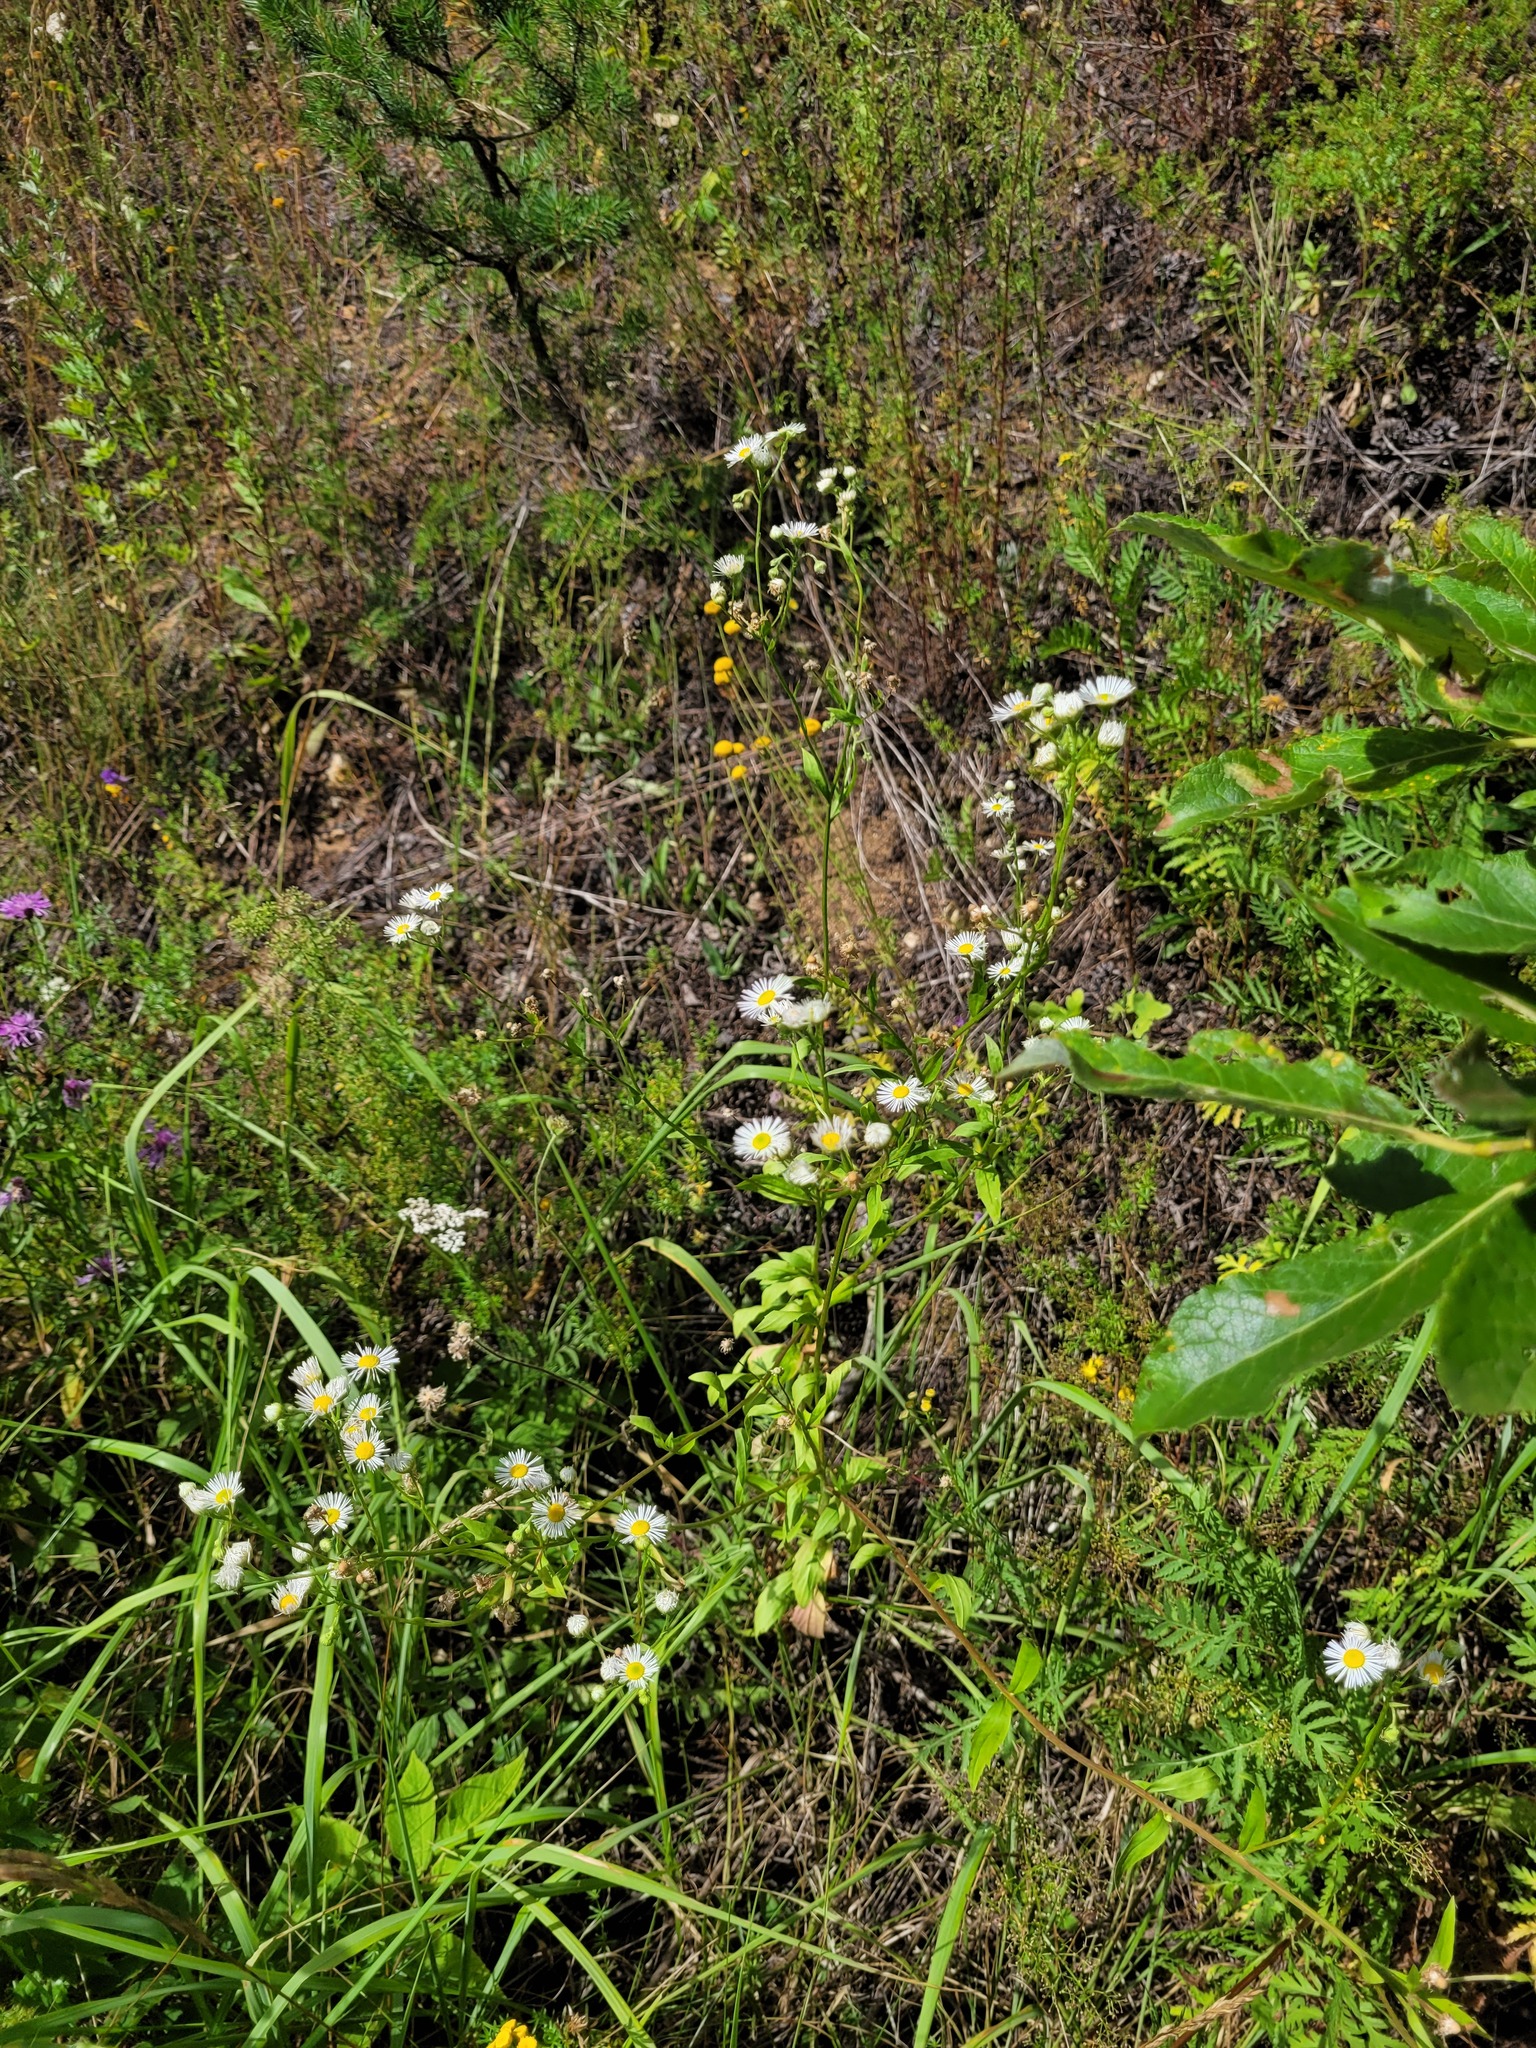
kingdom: Plantae
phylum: Tracheophyta
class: Magnoliopsida
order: Asterales
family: Asteraceae
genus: Erigeron
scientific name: Erigeron annuus
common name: Tall fleabane
